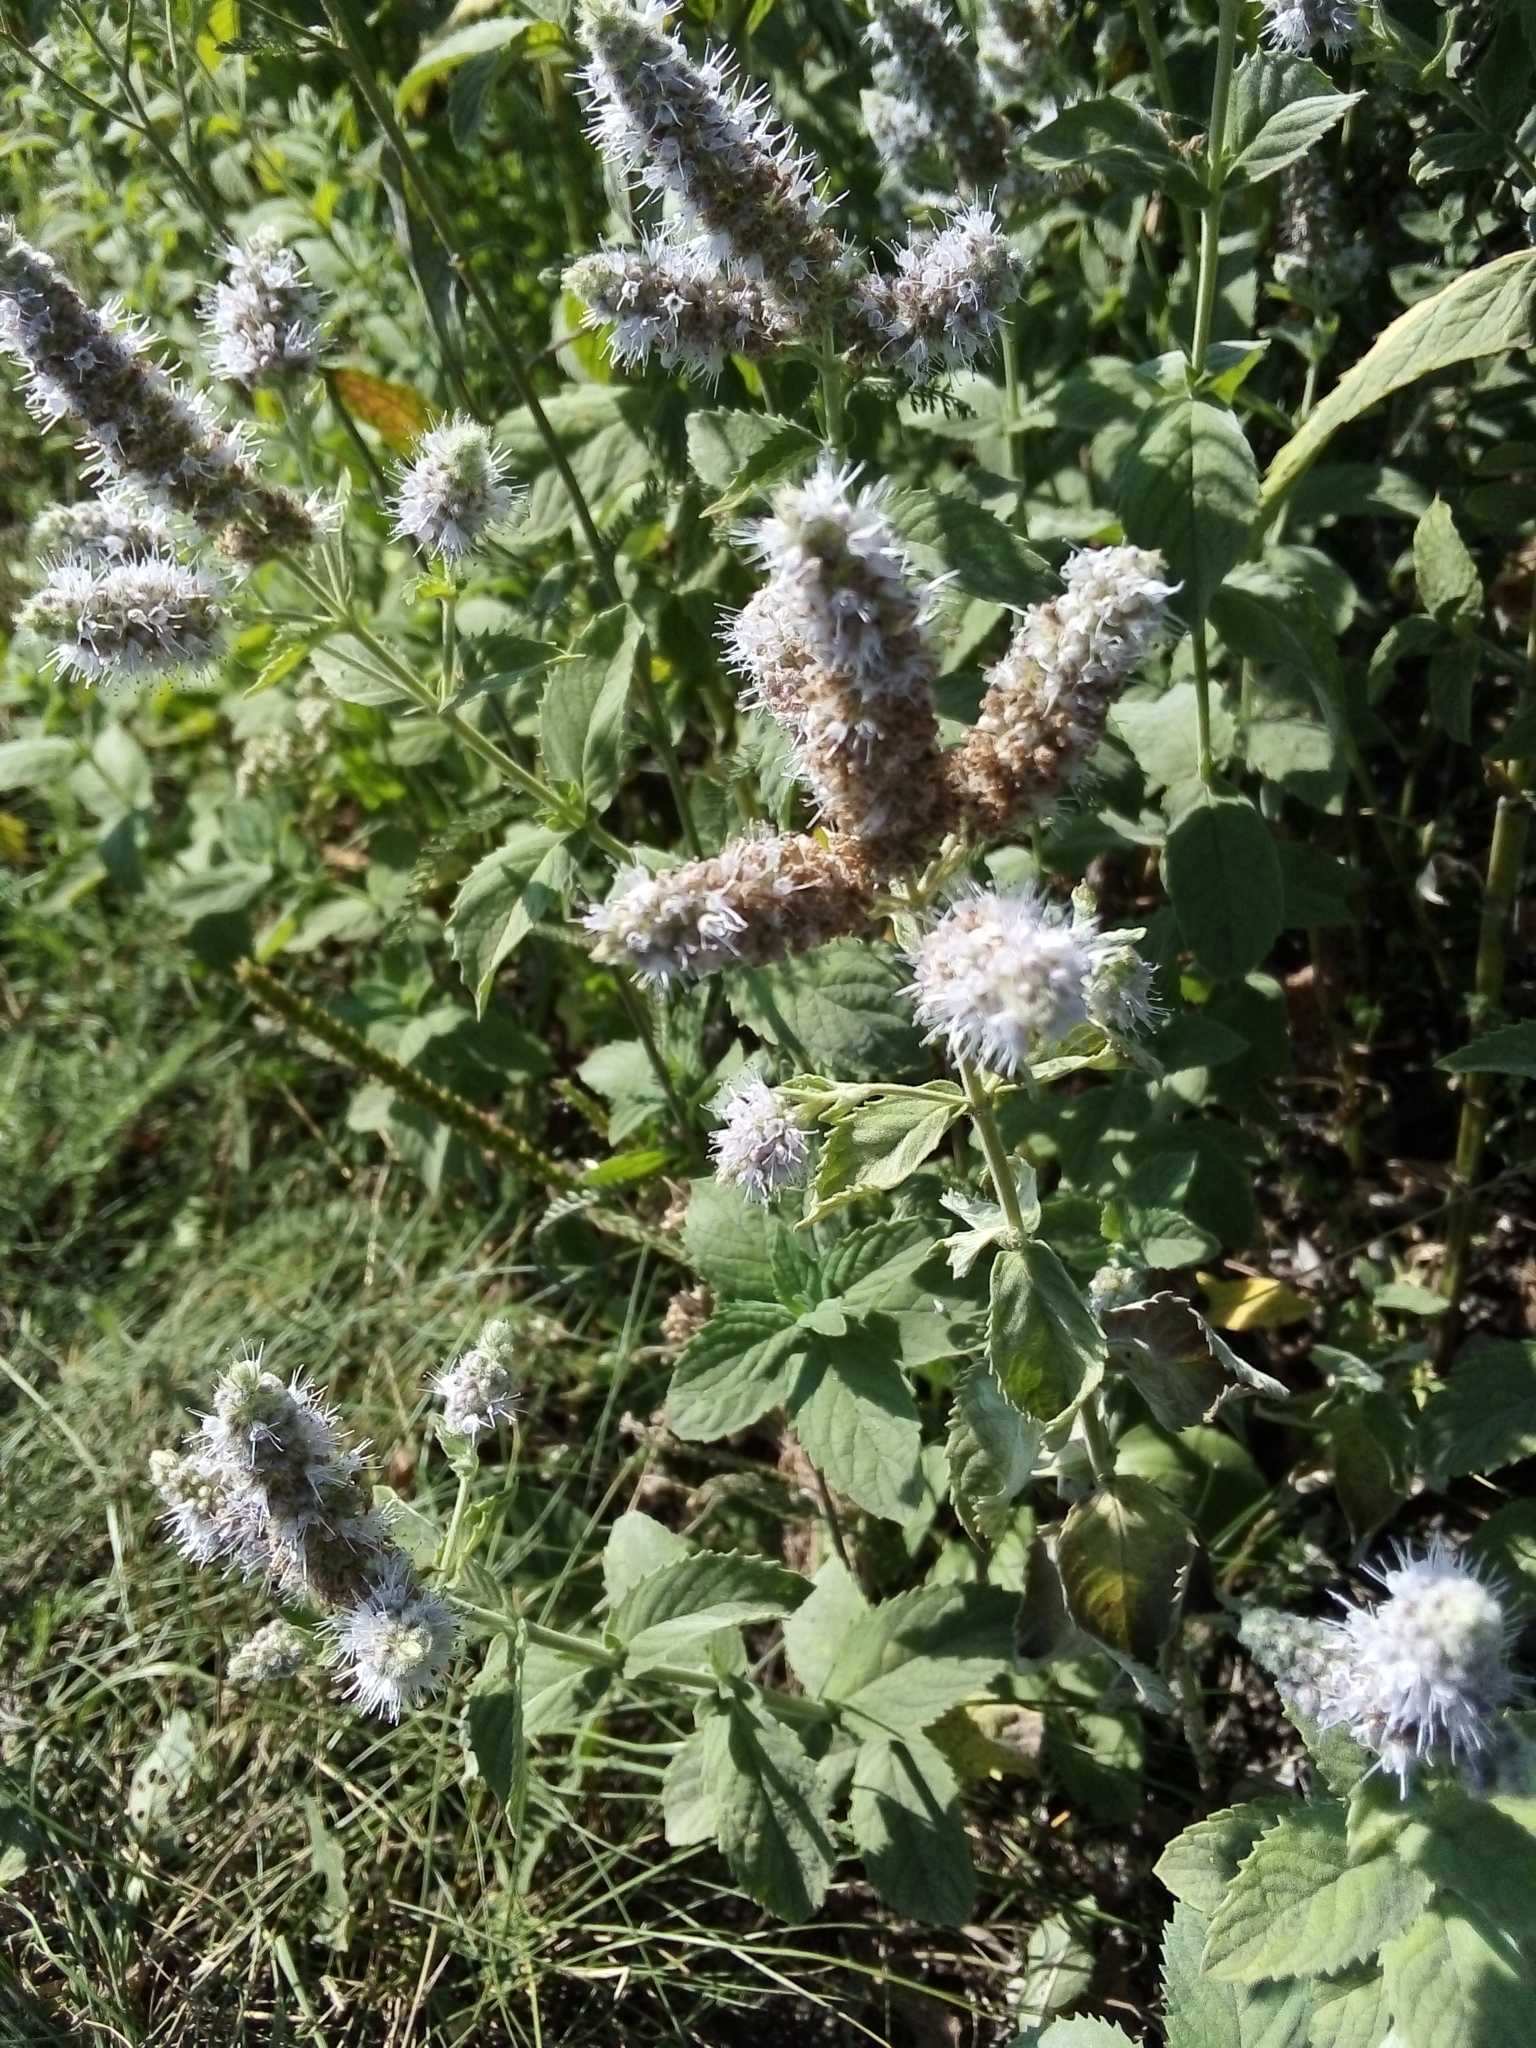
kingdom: Plantae
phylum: Tracheophyta
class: Magnoliopsida
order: Lamiales
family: Lamiaceae
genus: Mentha
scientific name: Mentha longifolia
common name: Horse mint
